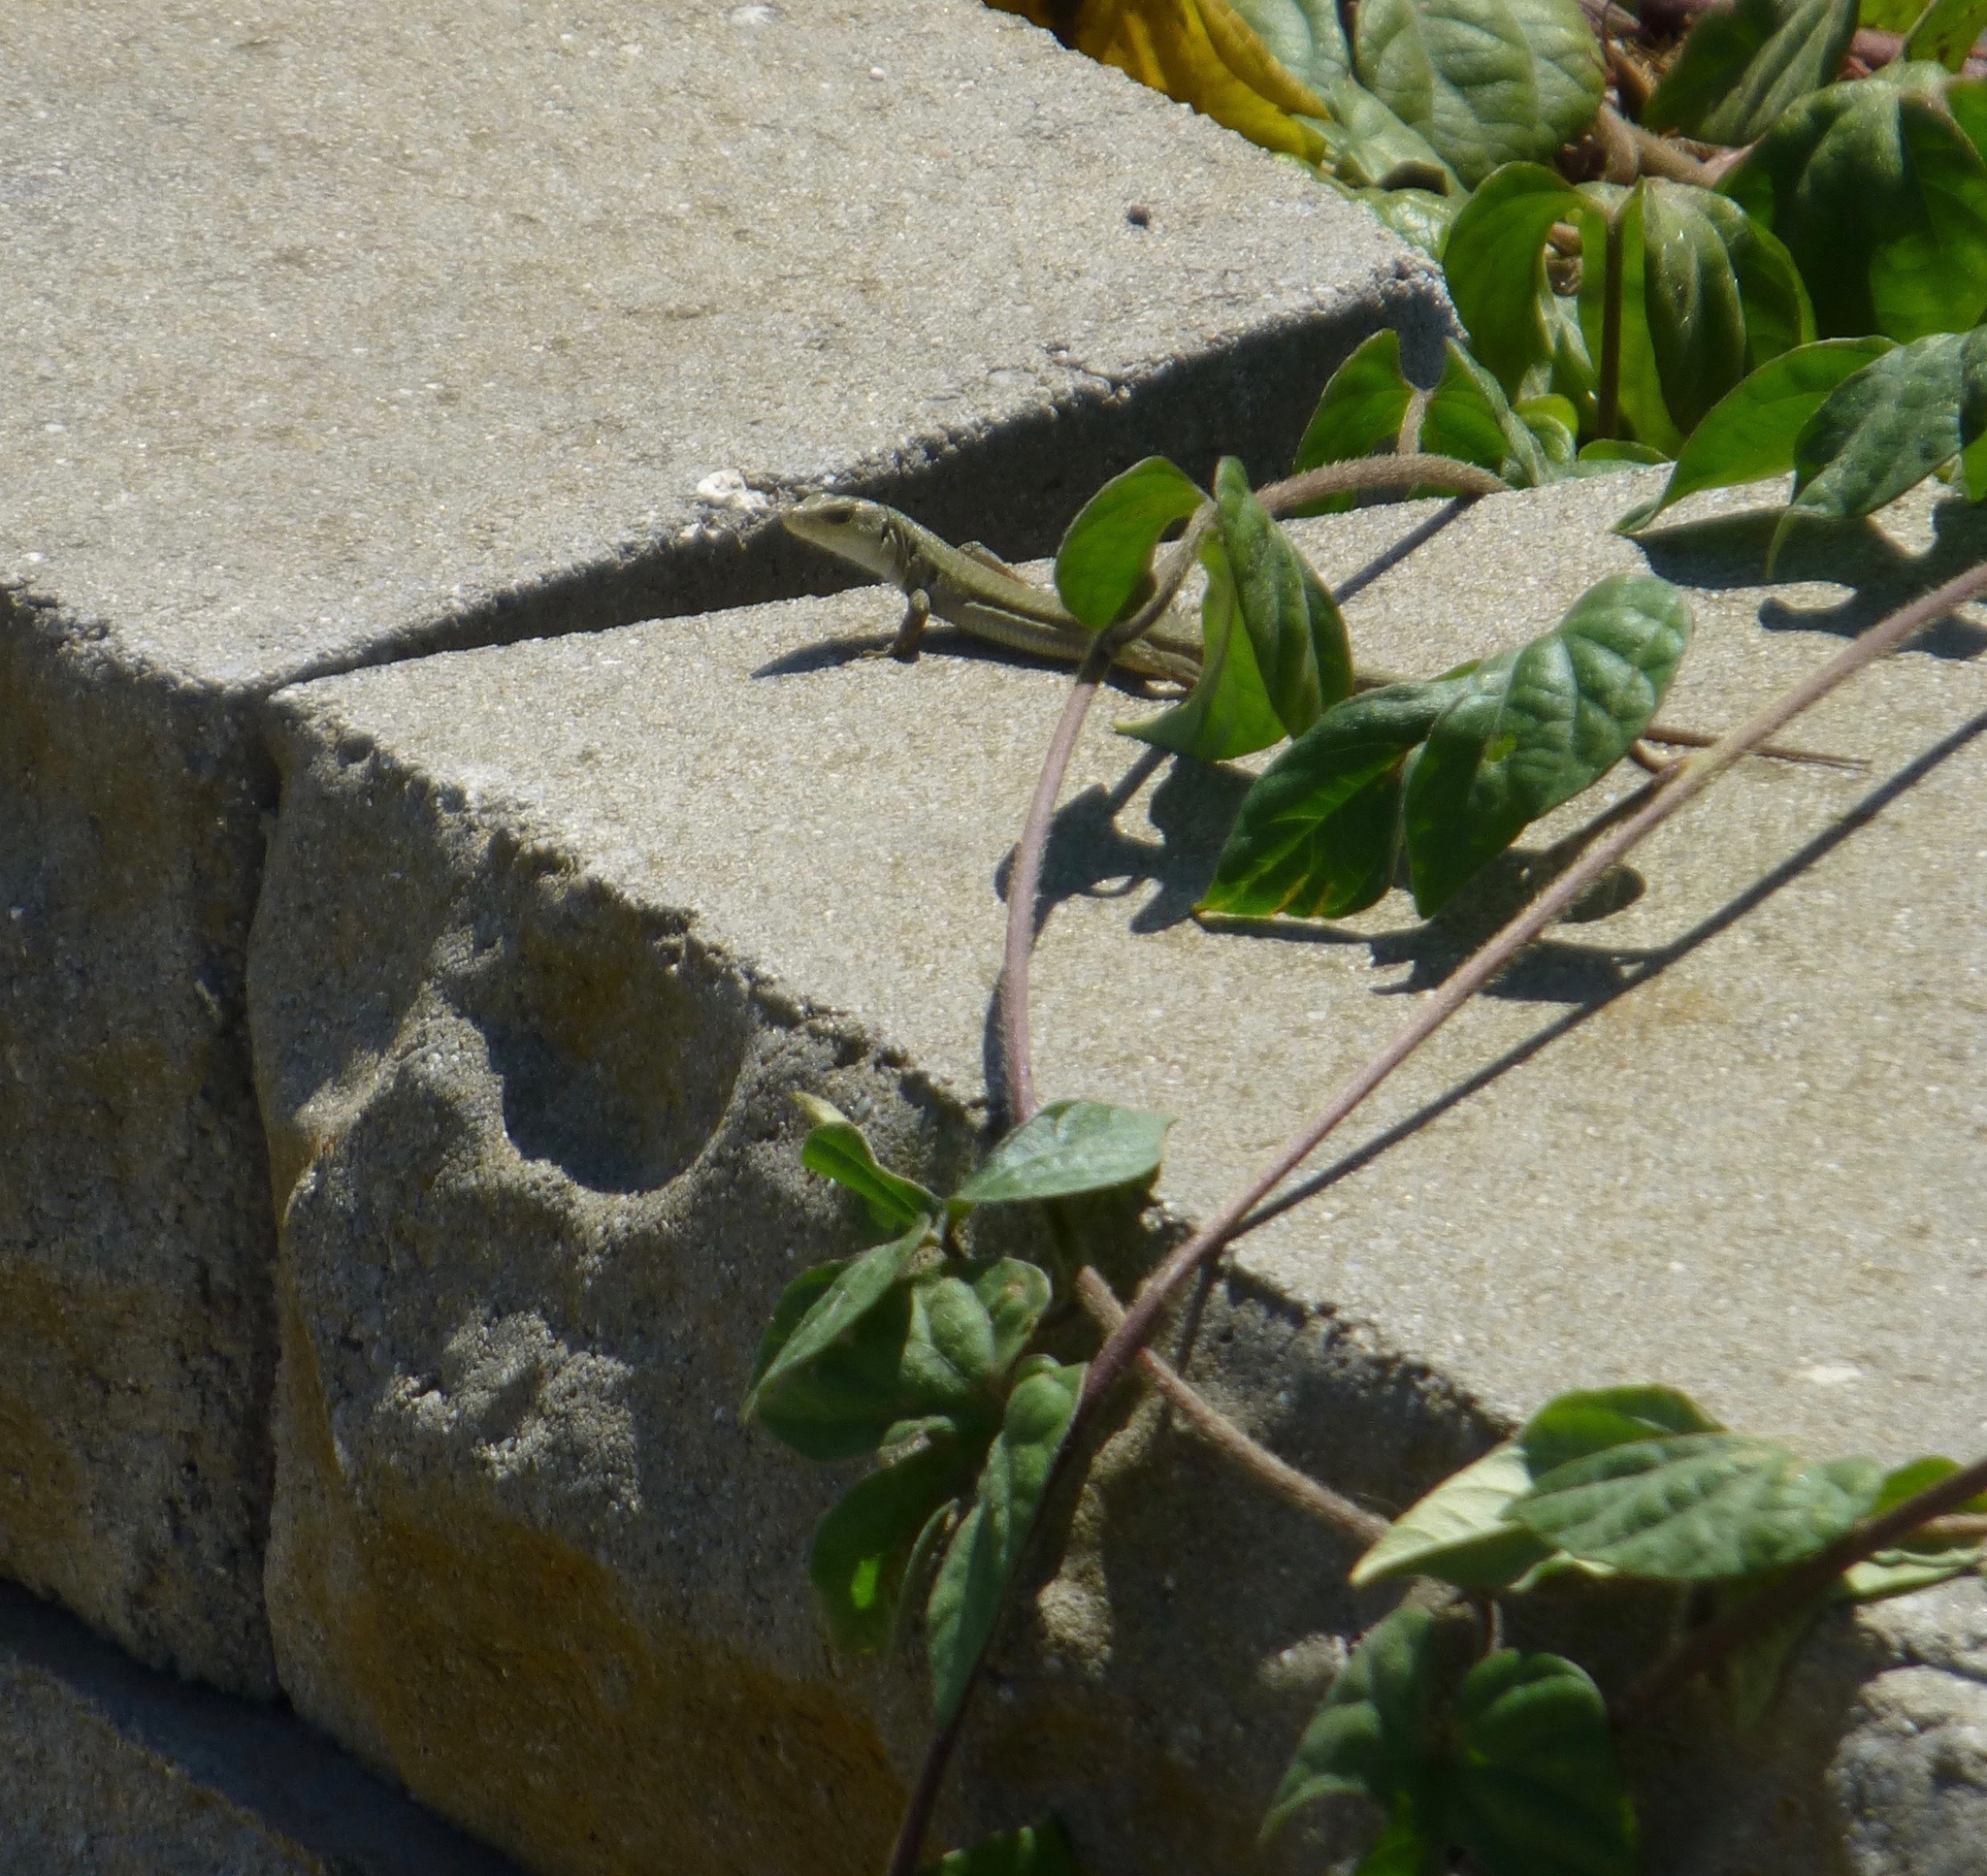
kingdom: Animalia
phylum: Chordata
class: Squamata
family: Lacertidae
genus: Podarcis
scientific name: Podarcis siculus
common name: Italian wall lizard
